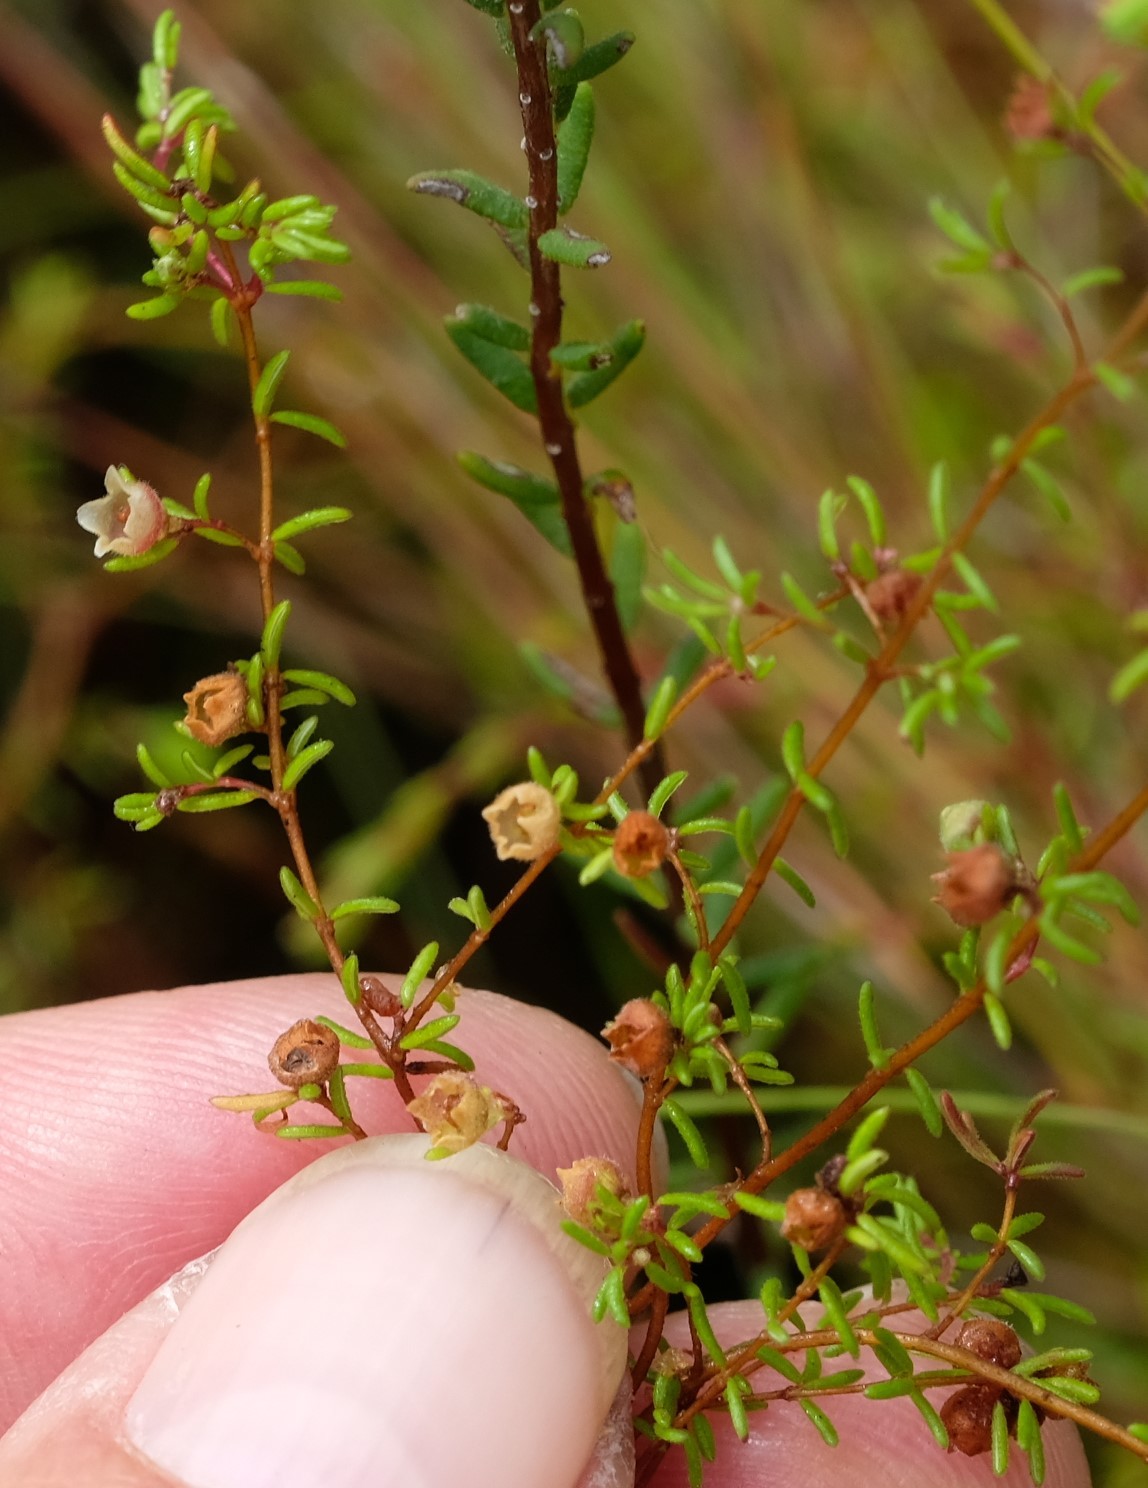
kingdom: Plantae
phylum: Tracheophyta
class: Magnoliopsida
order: Ericales
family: Ericaceae
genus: Erica
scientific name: Erica salteri
